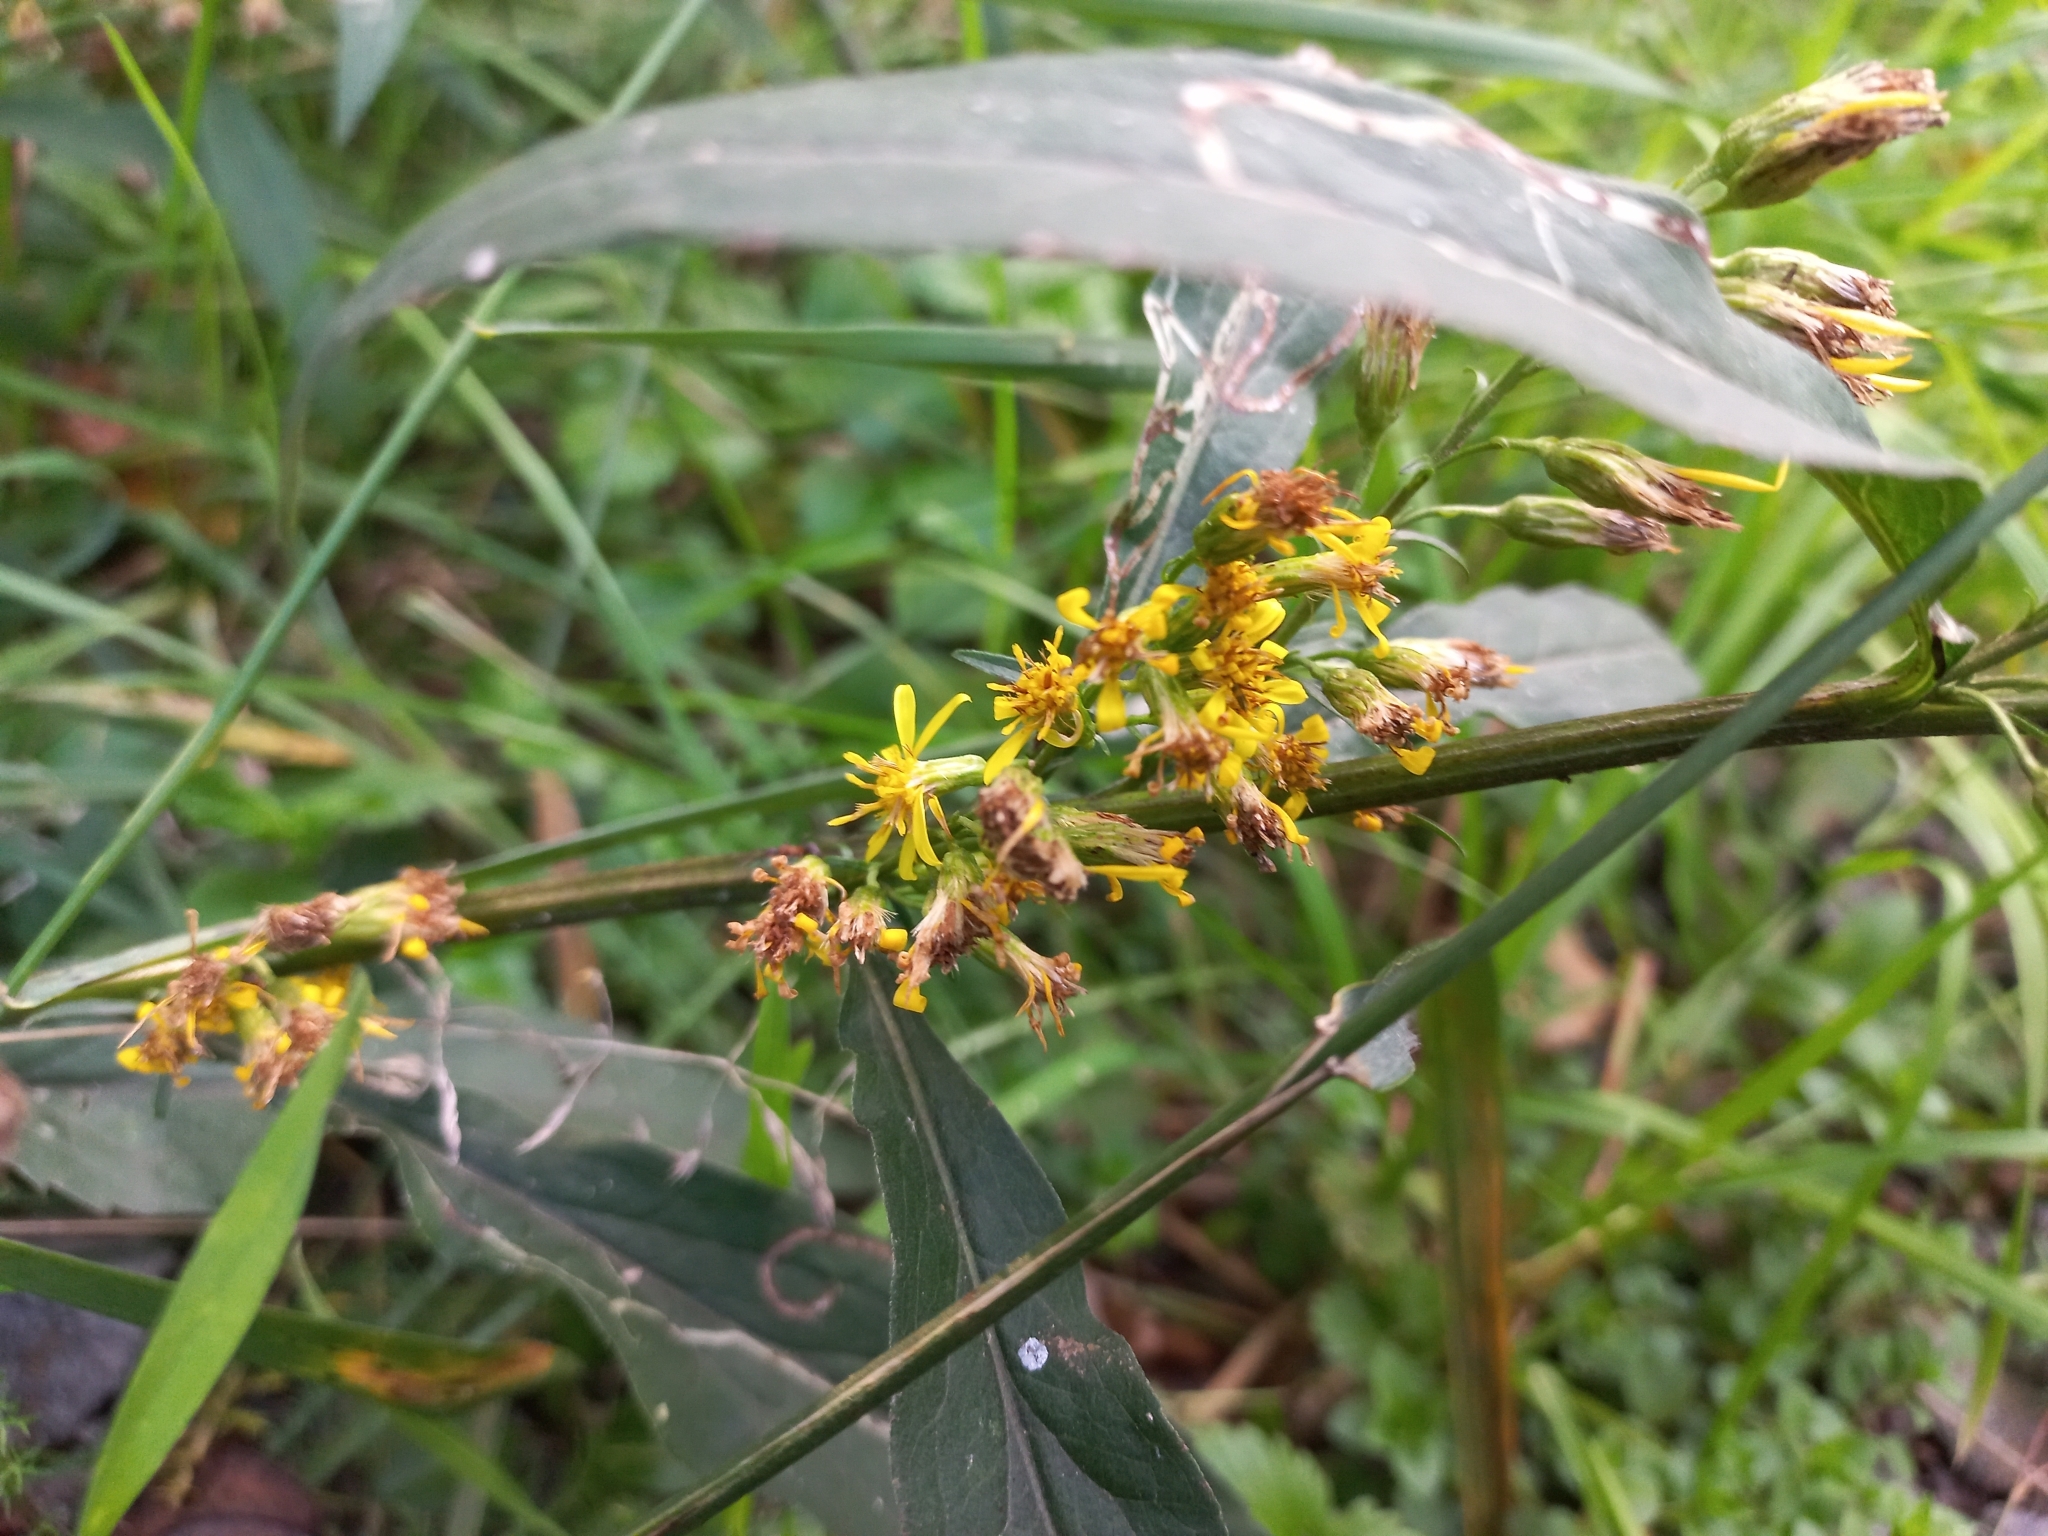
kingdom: Plantae
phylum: Tracheophyta
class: Magnoliopsida
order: Asterales
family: Asteraceae
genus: Solidago
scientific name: Solidago virgaurea
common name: Goldenrod
